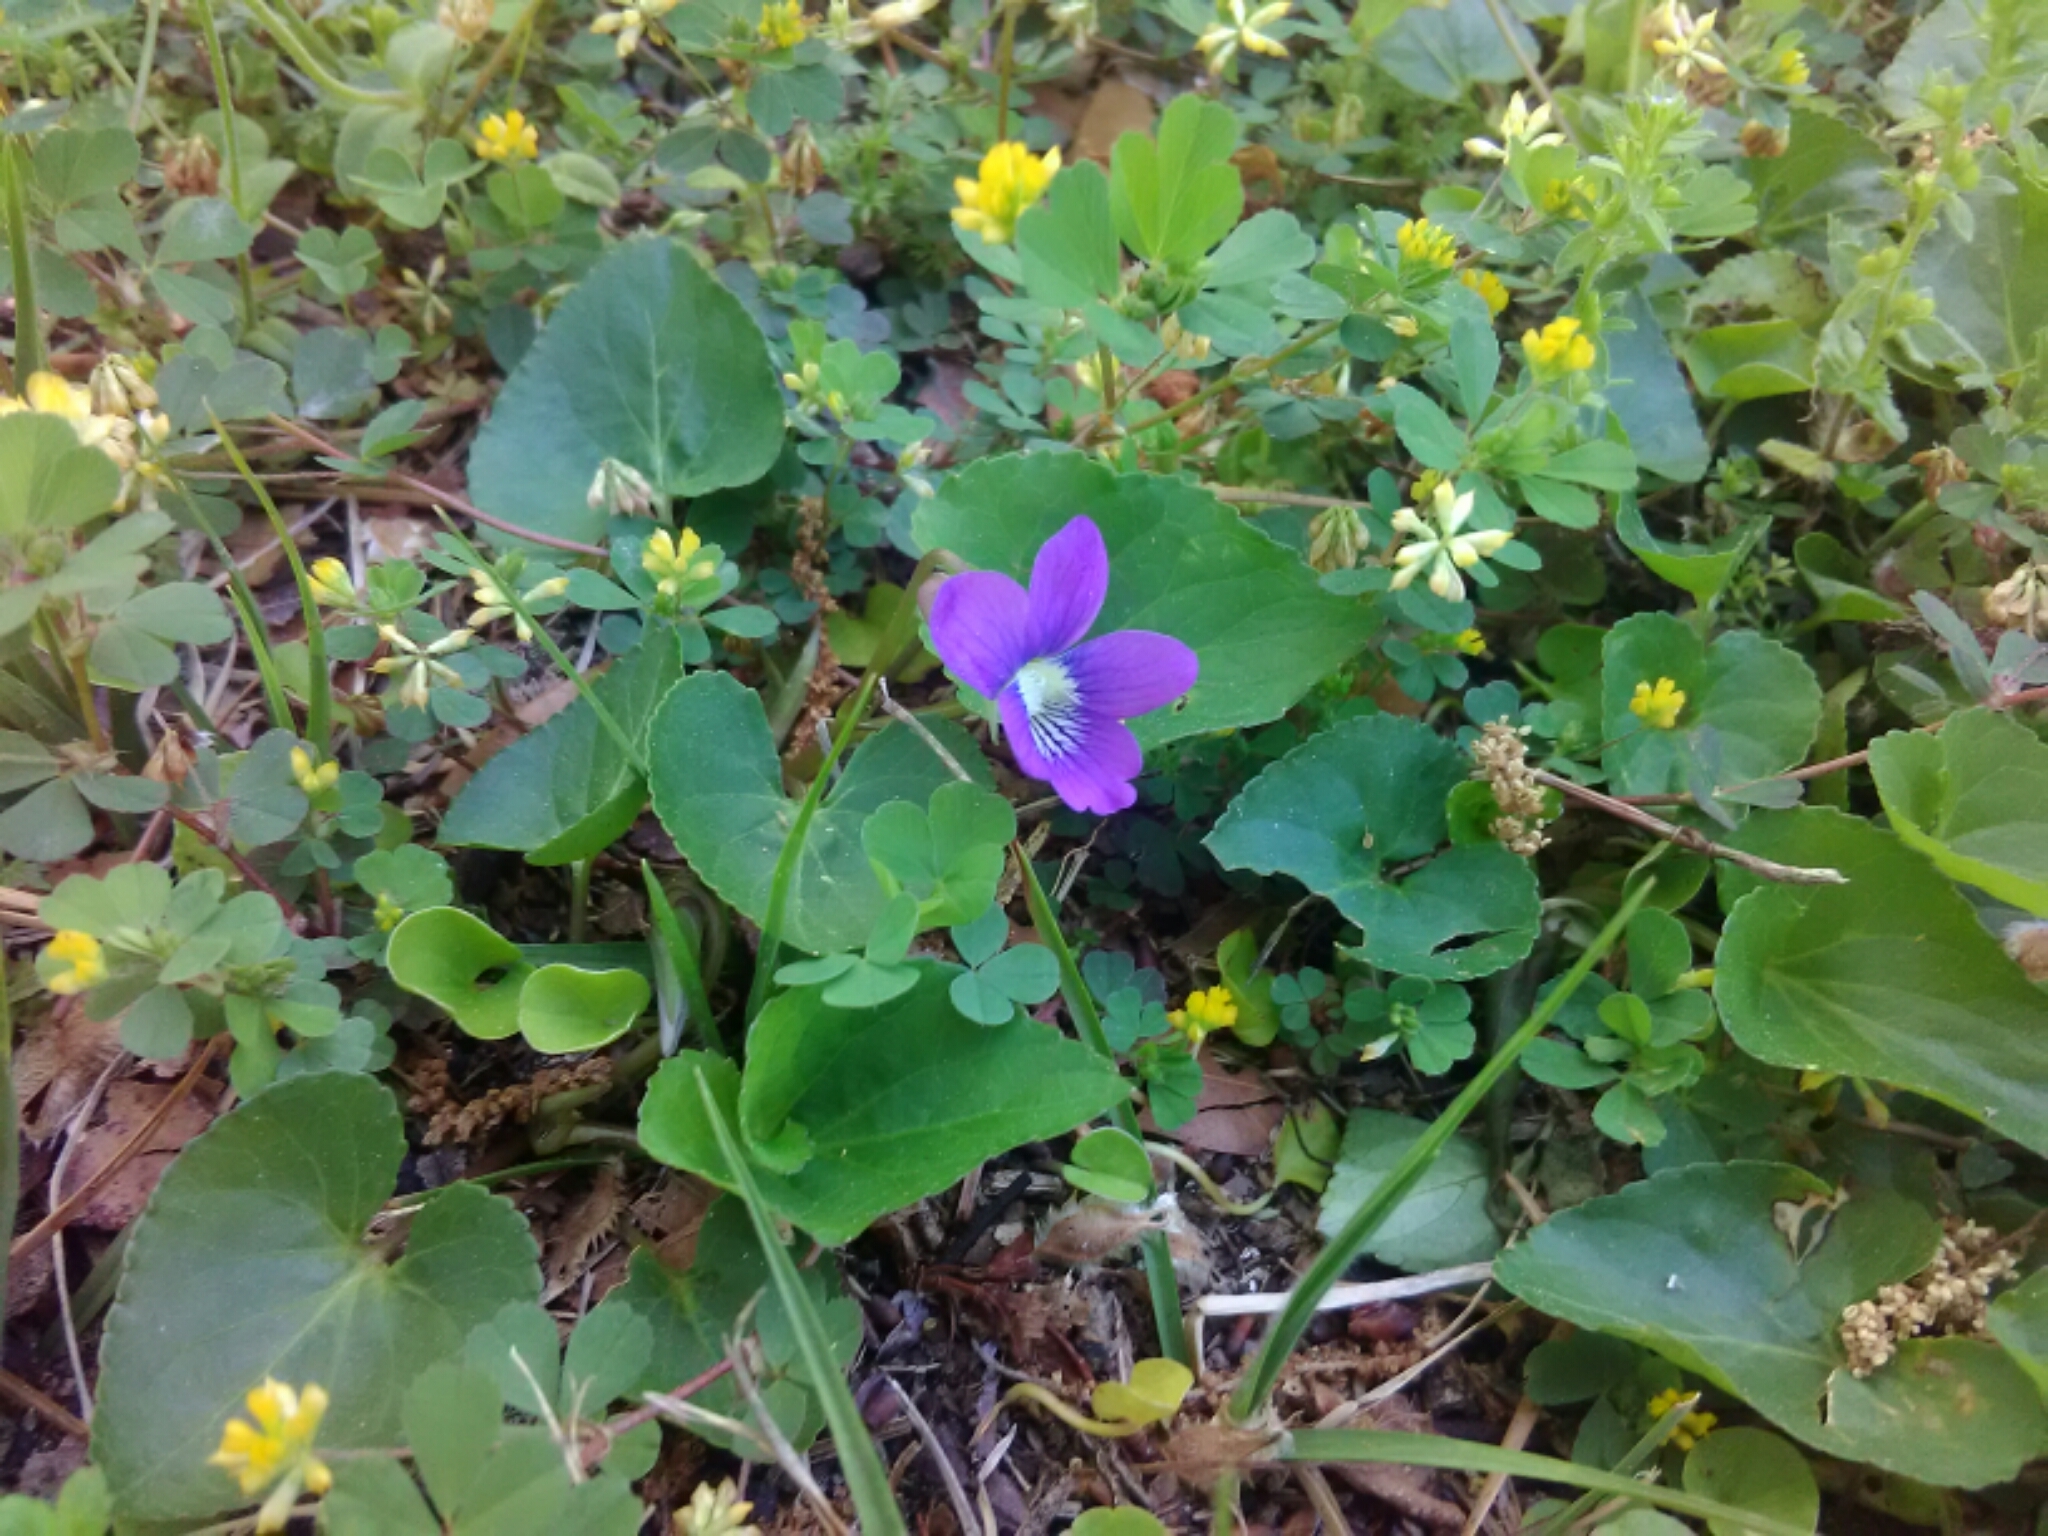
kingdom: Plantae
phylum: Tracheophyta
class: Magnoliopsida
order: Malpighiales
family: Violaceae
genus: Viola
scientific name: Viola sororia
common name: Dooryard violet
